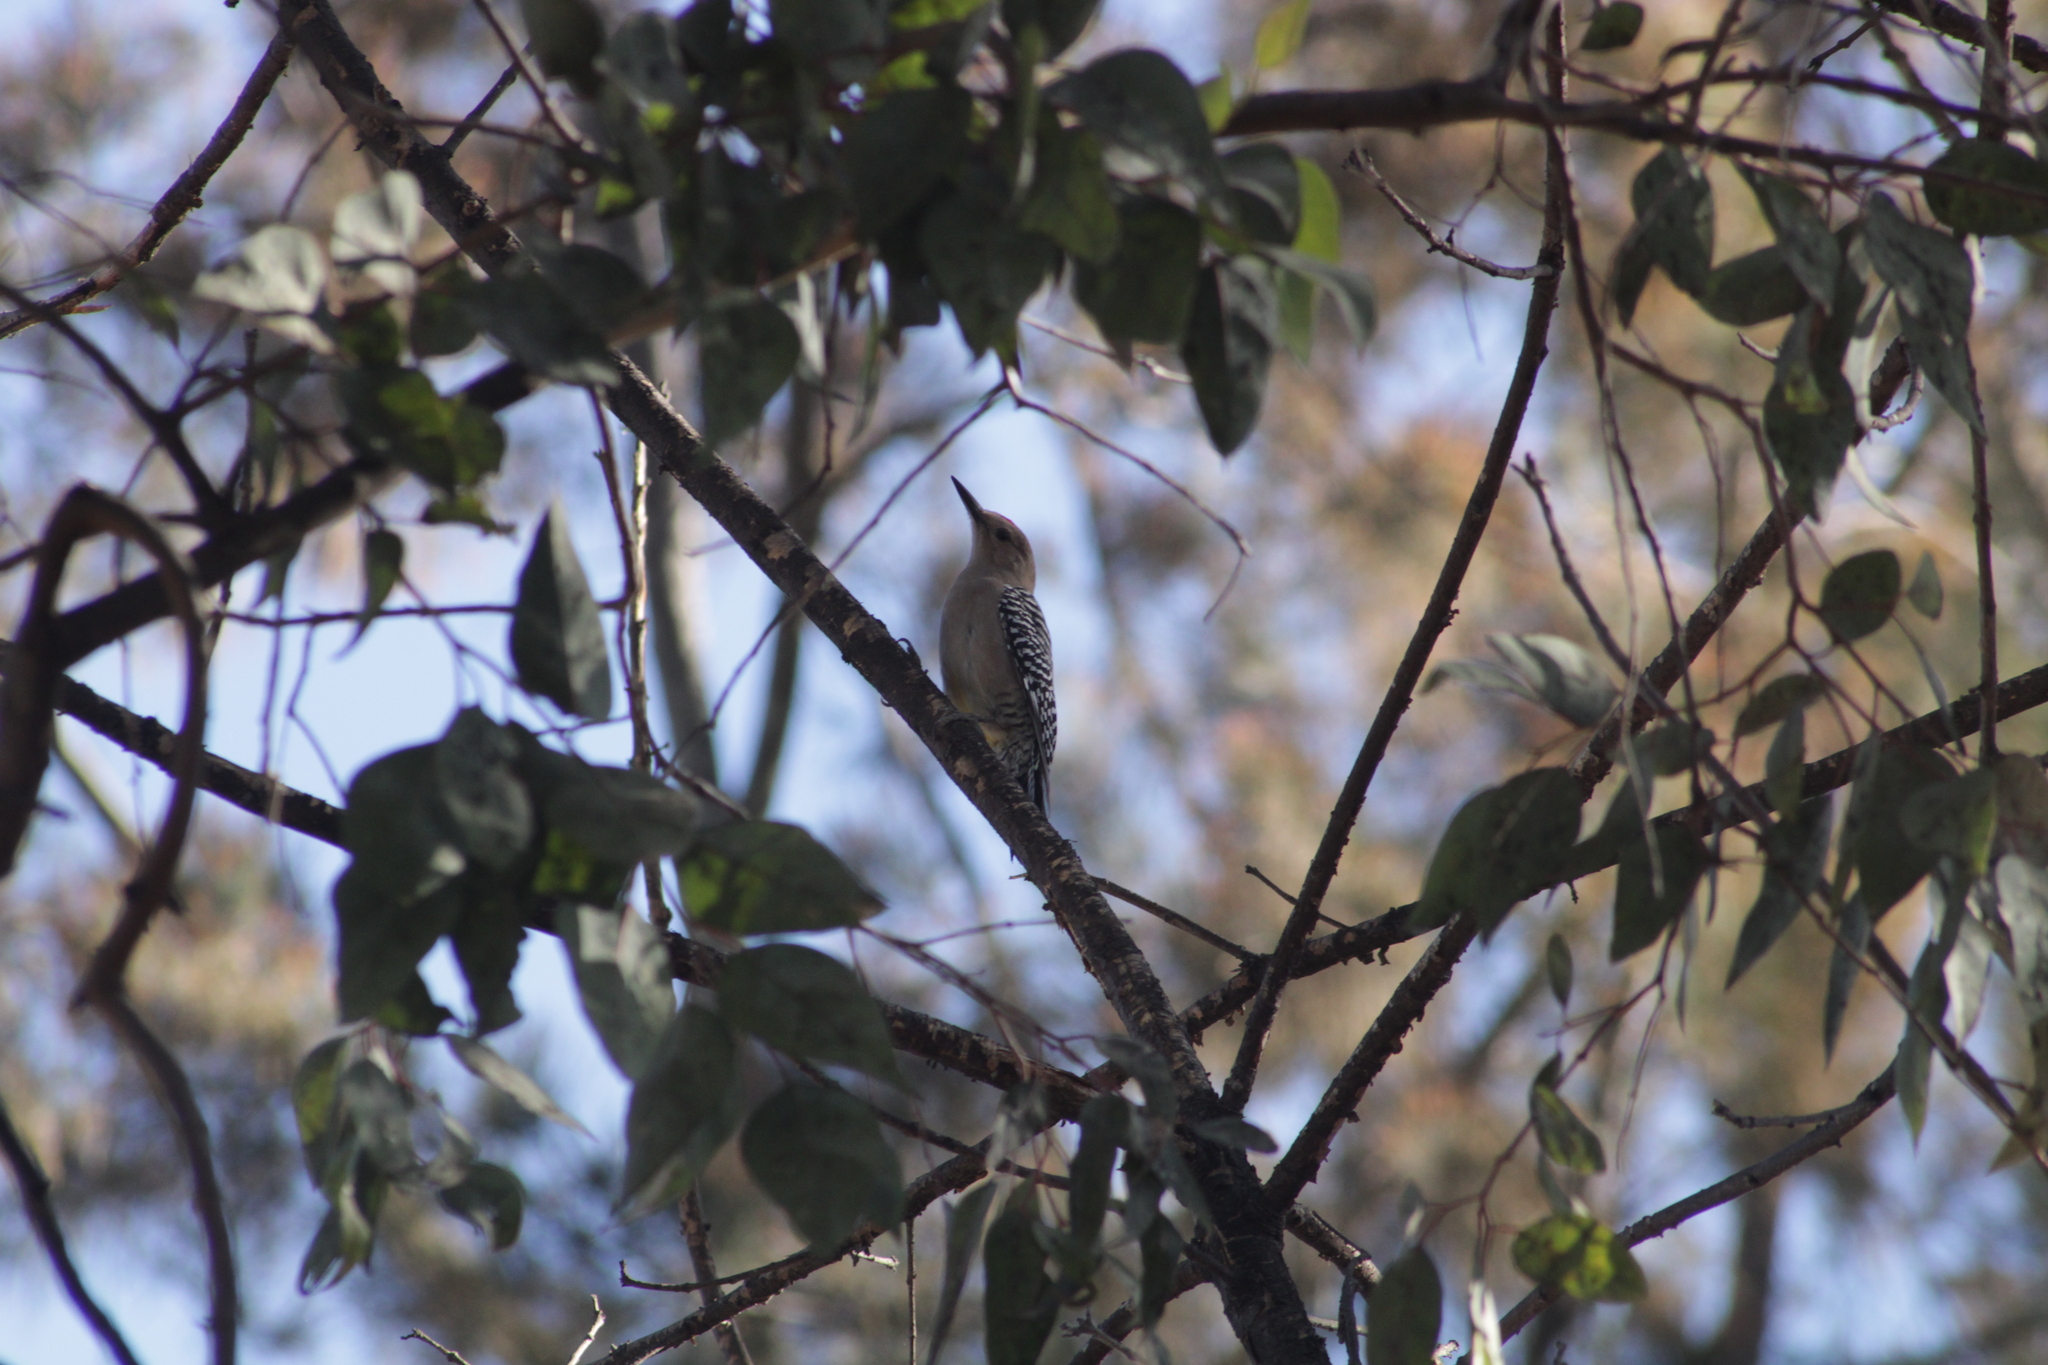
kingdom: Animalia
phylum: Chordata
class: Aves
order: Piciformes
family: Picidae
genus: Melanerpes
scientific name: Melanerpes uropygialis
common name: Gila woodpecker
